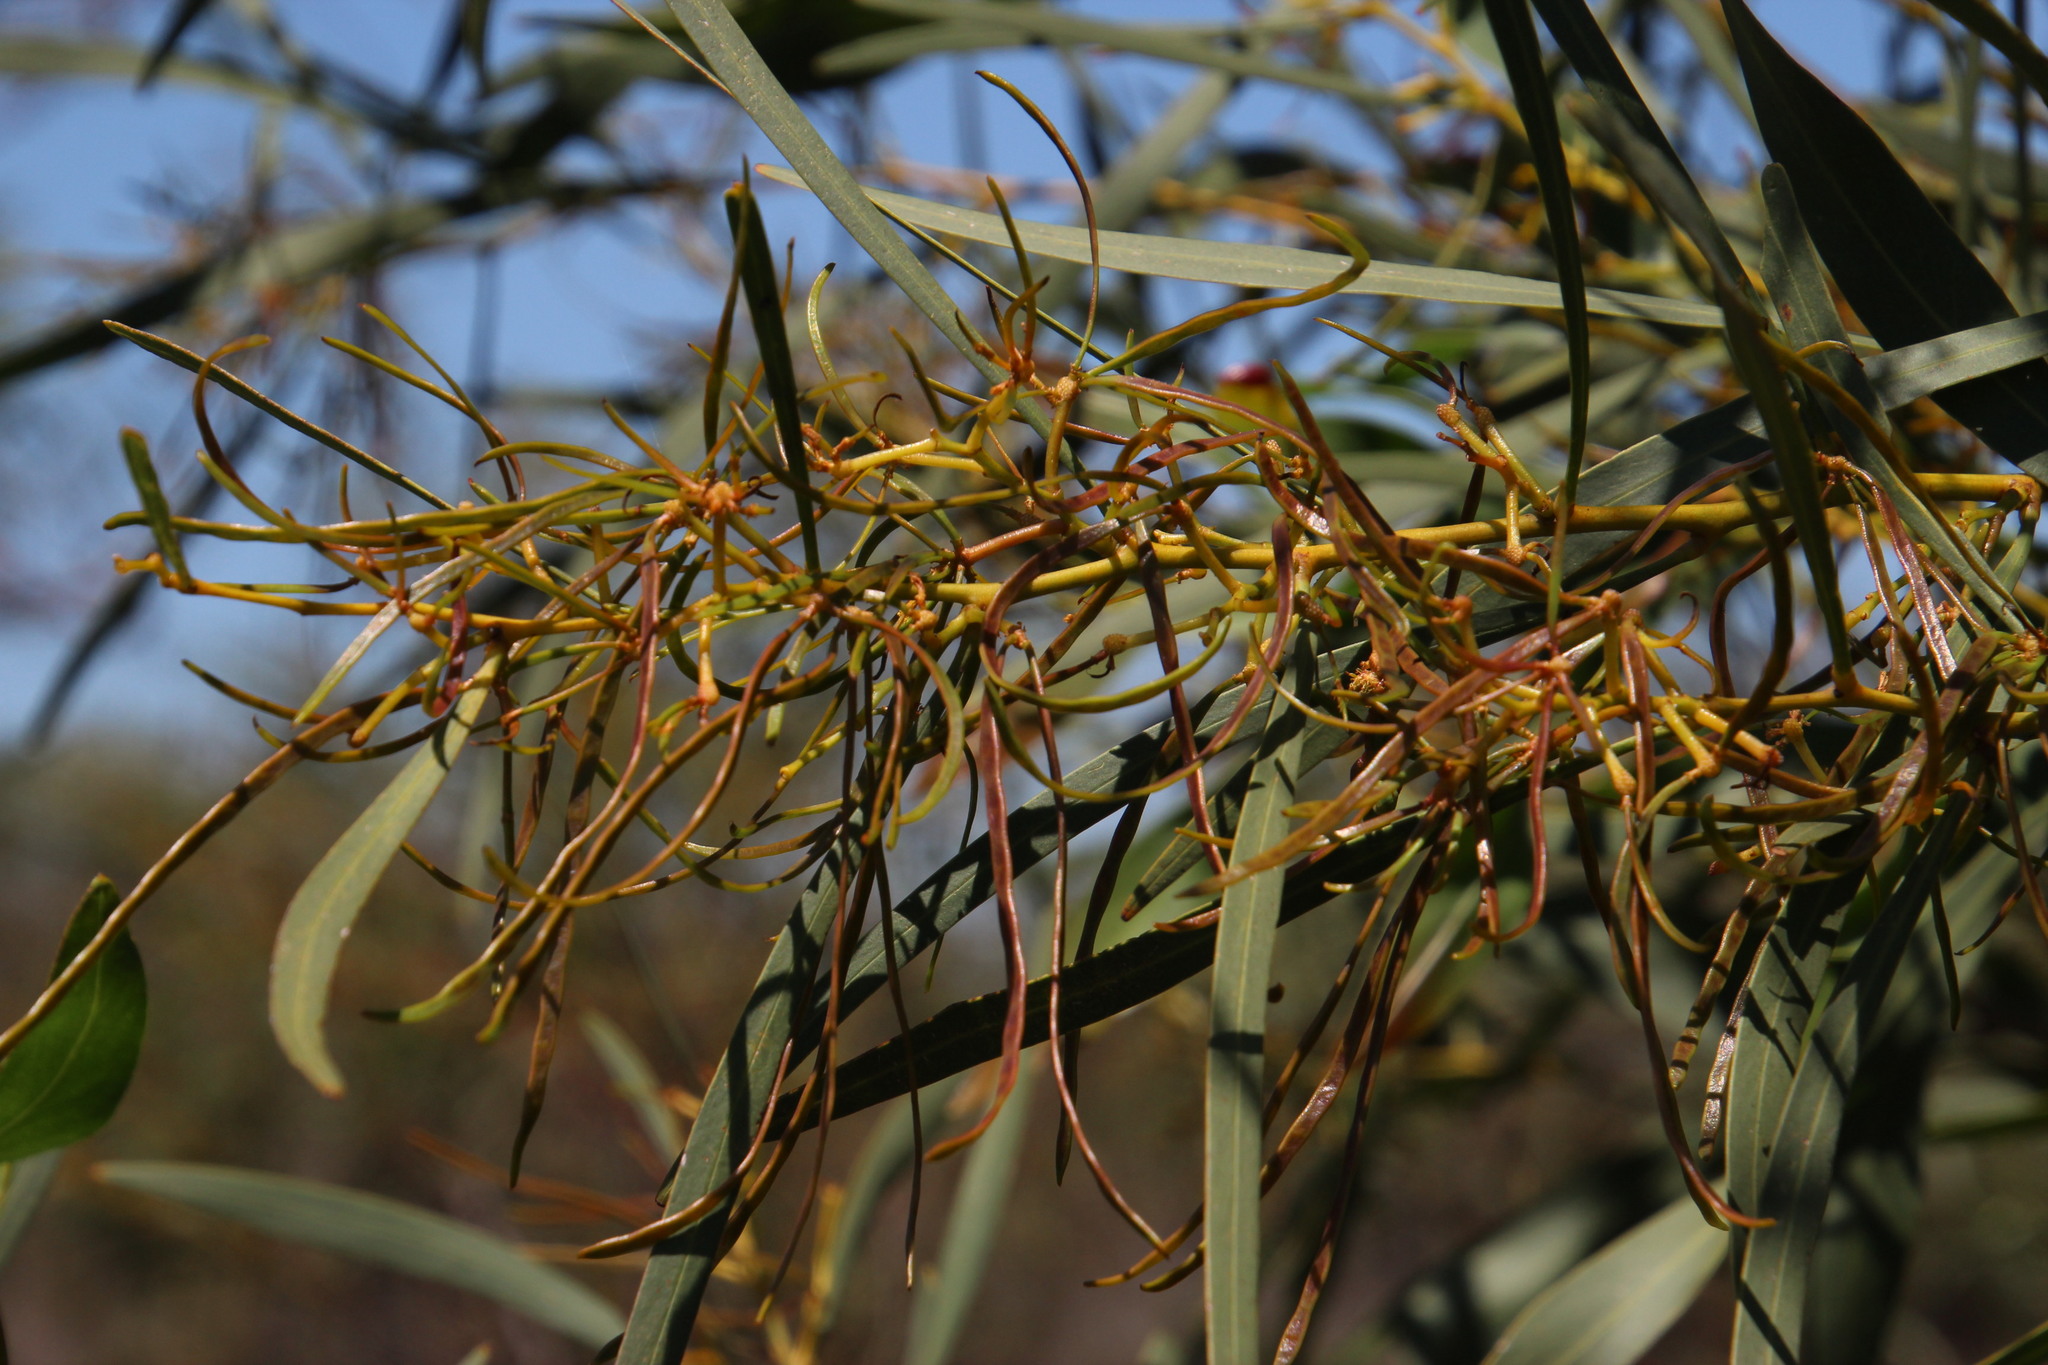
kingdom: Plantae
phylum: Tracheophyta
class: Magnoliopsida
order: Fabales
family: Fabaceae
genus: Acacia
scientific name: Acacia saligna
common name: Orange wattle
